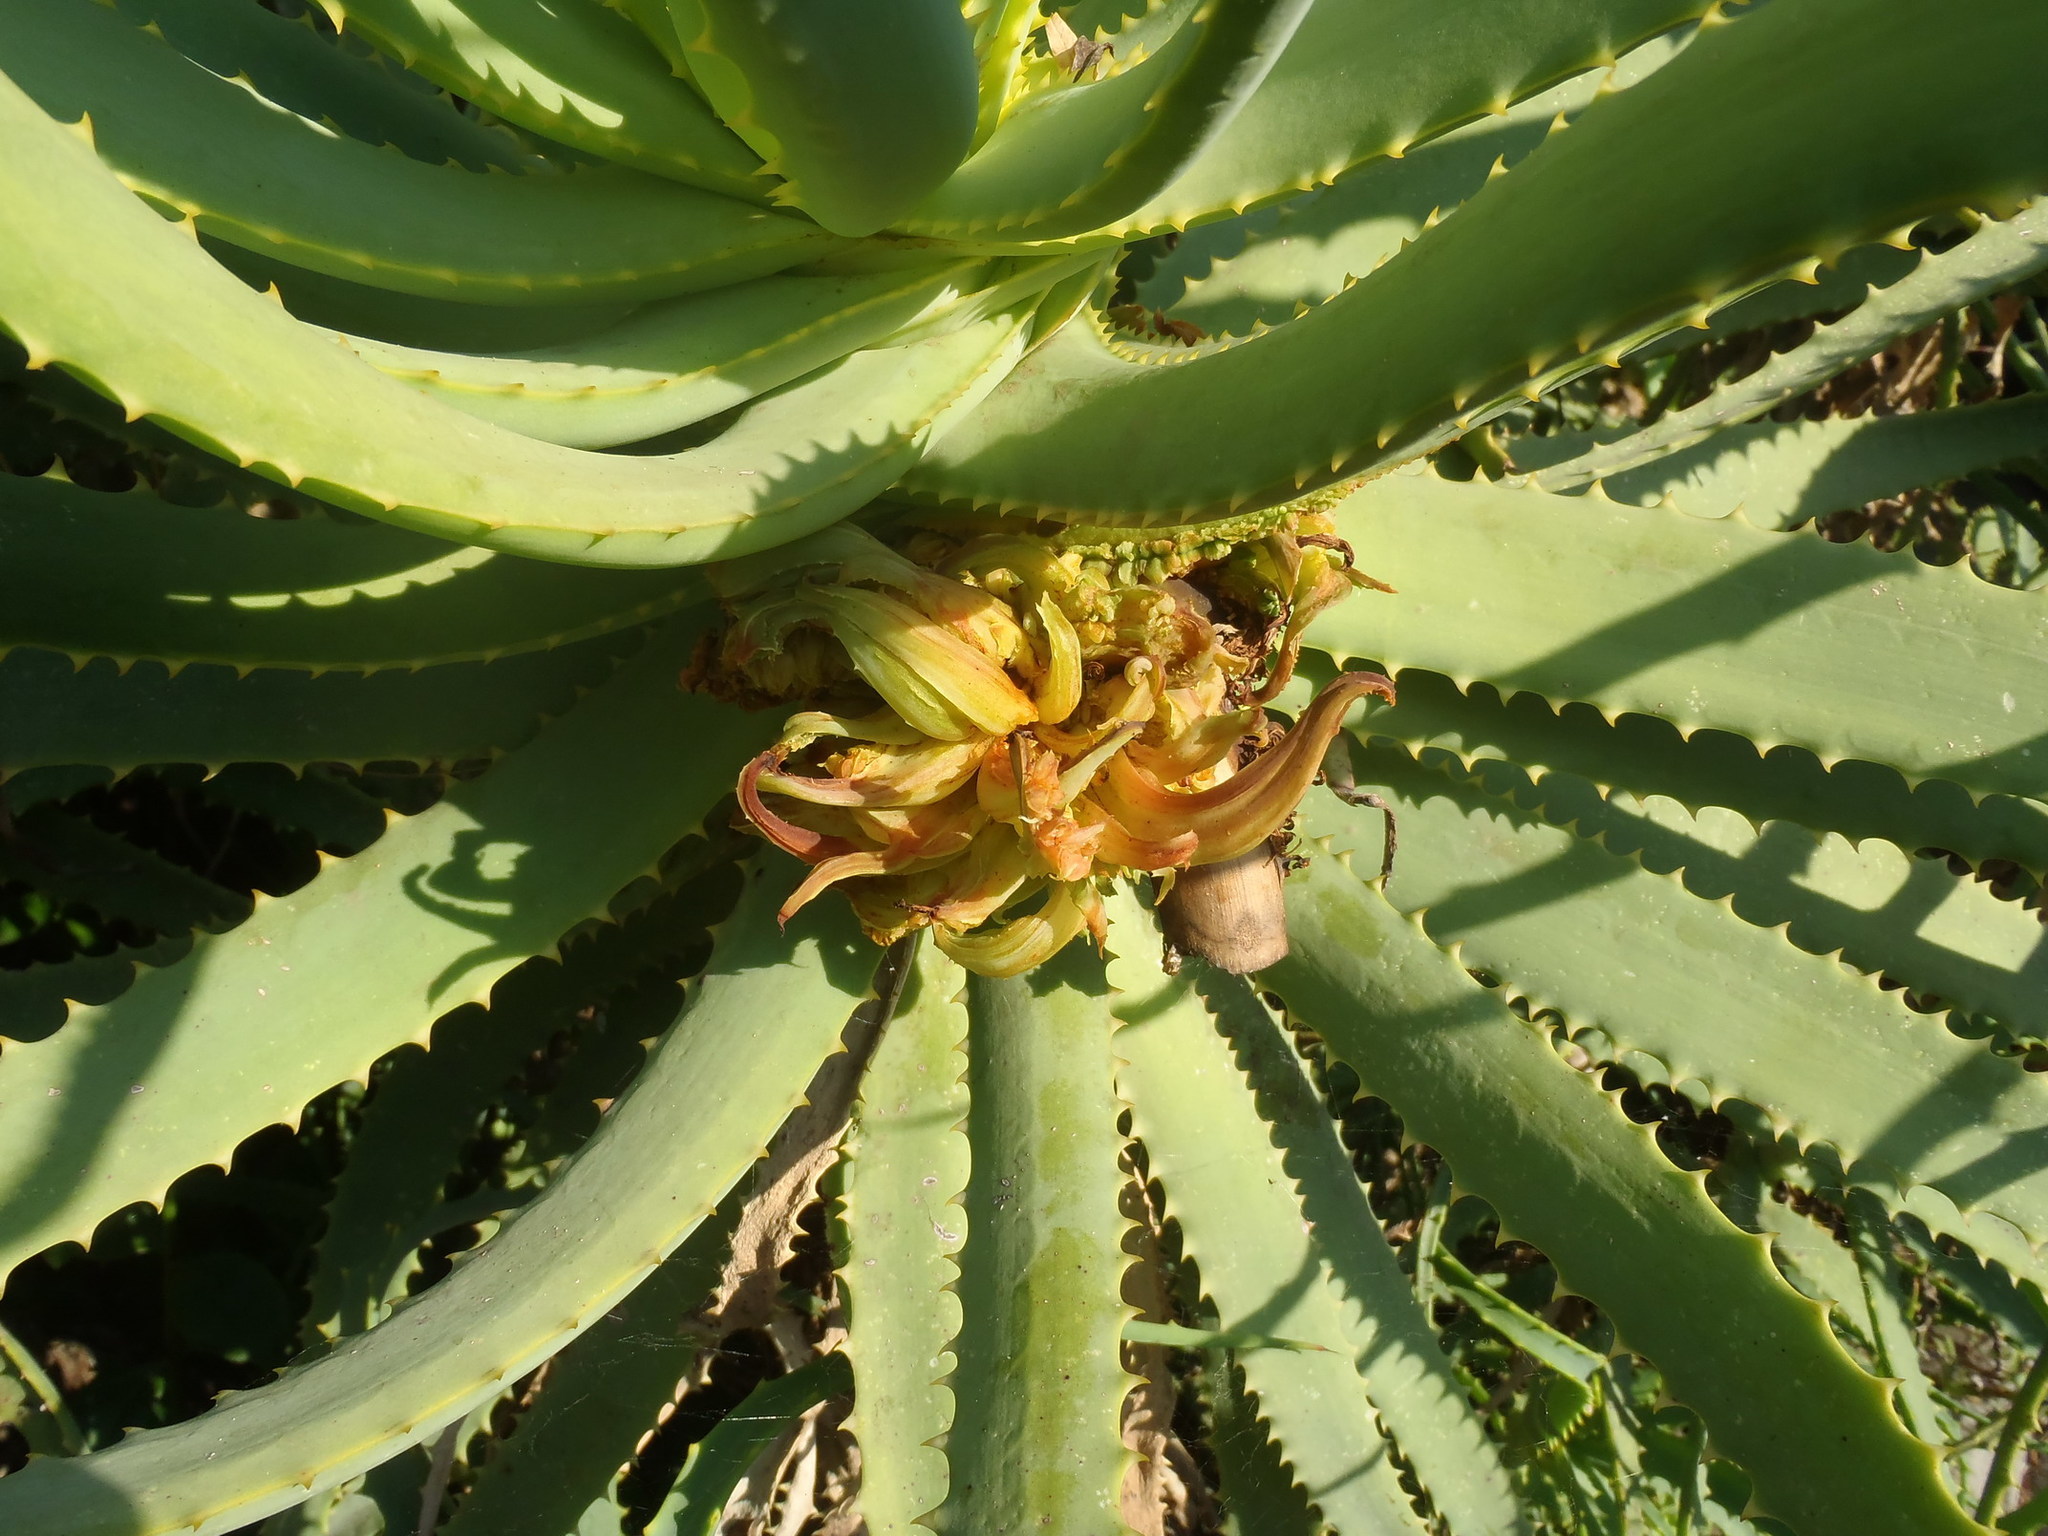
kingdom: Animalia
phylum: Arthropoda
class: Arachnida
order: Trombidiformes
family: Eriophyidae
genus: Aceria
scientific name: Aceria aloinis
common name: Mite
